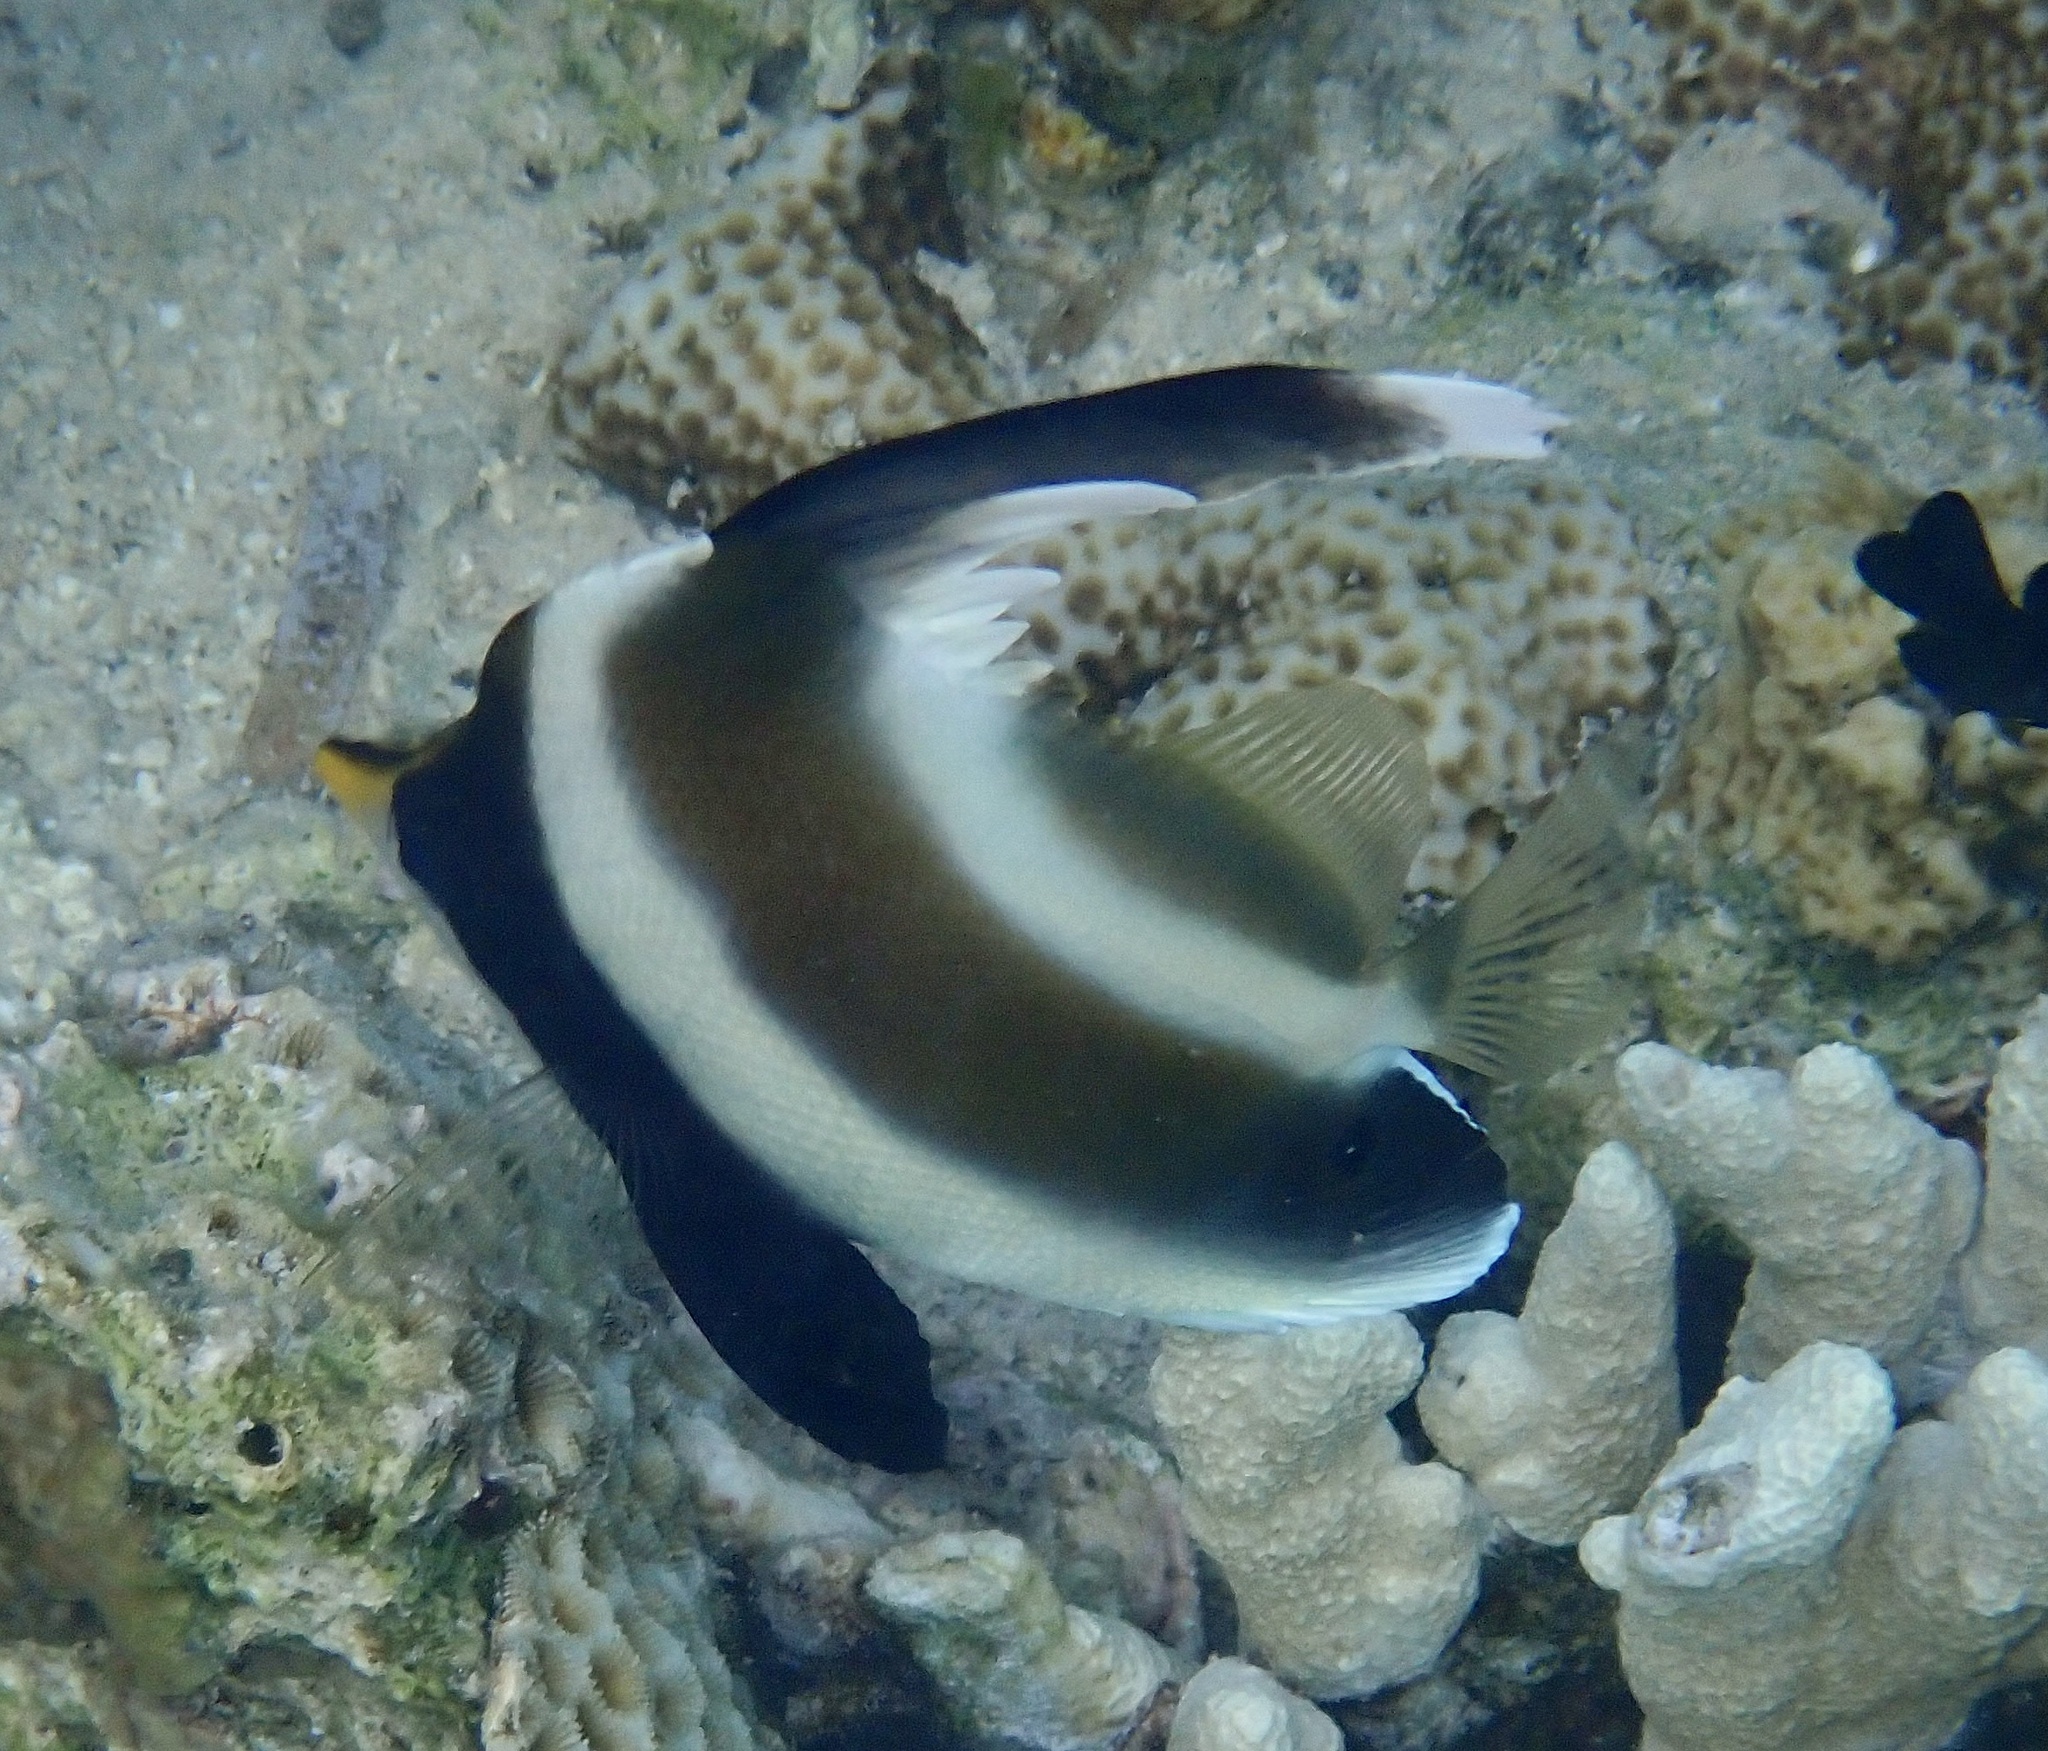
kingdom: Animalia
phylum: Chordata
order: Perciformes
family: Chaetodontidae
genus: Heniochus
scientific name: Heniochus chrysostomus
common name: Horned bannerfish
